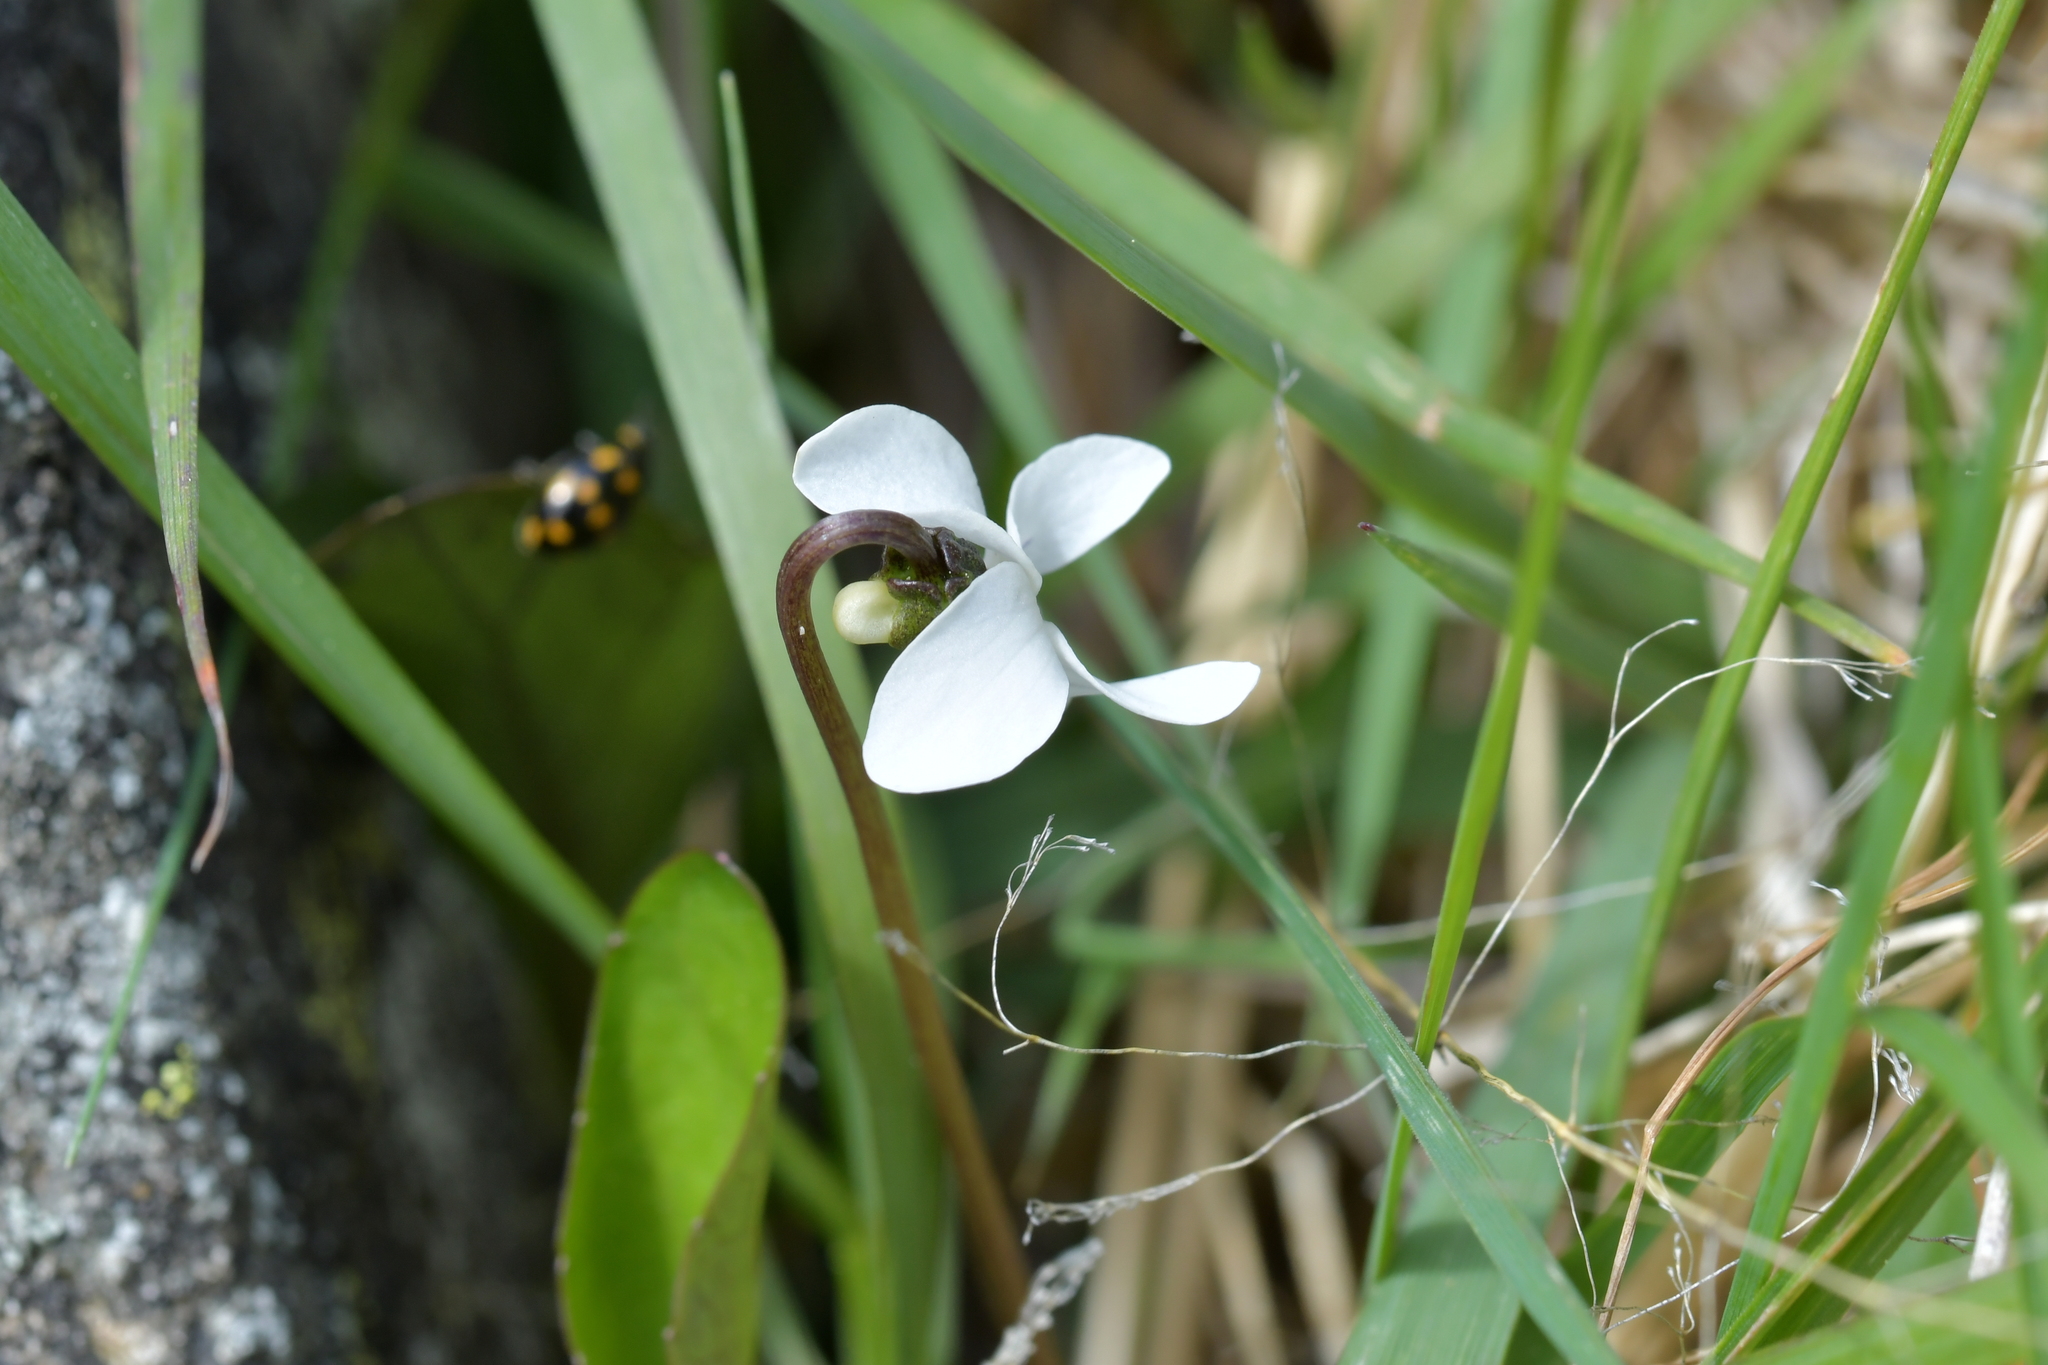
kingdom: Plantae
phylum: Tracheophyta
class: Magnoliopsida
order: Malpighiales
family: Violaceae
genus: Viola
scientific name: Viola cunninghamii
